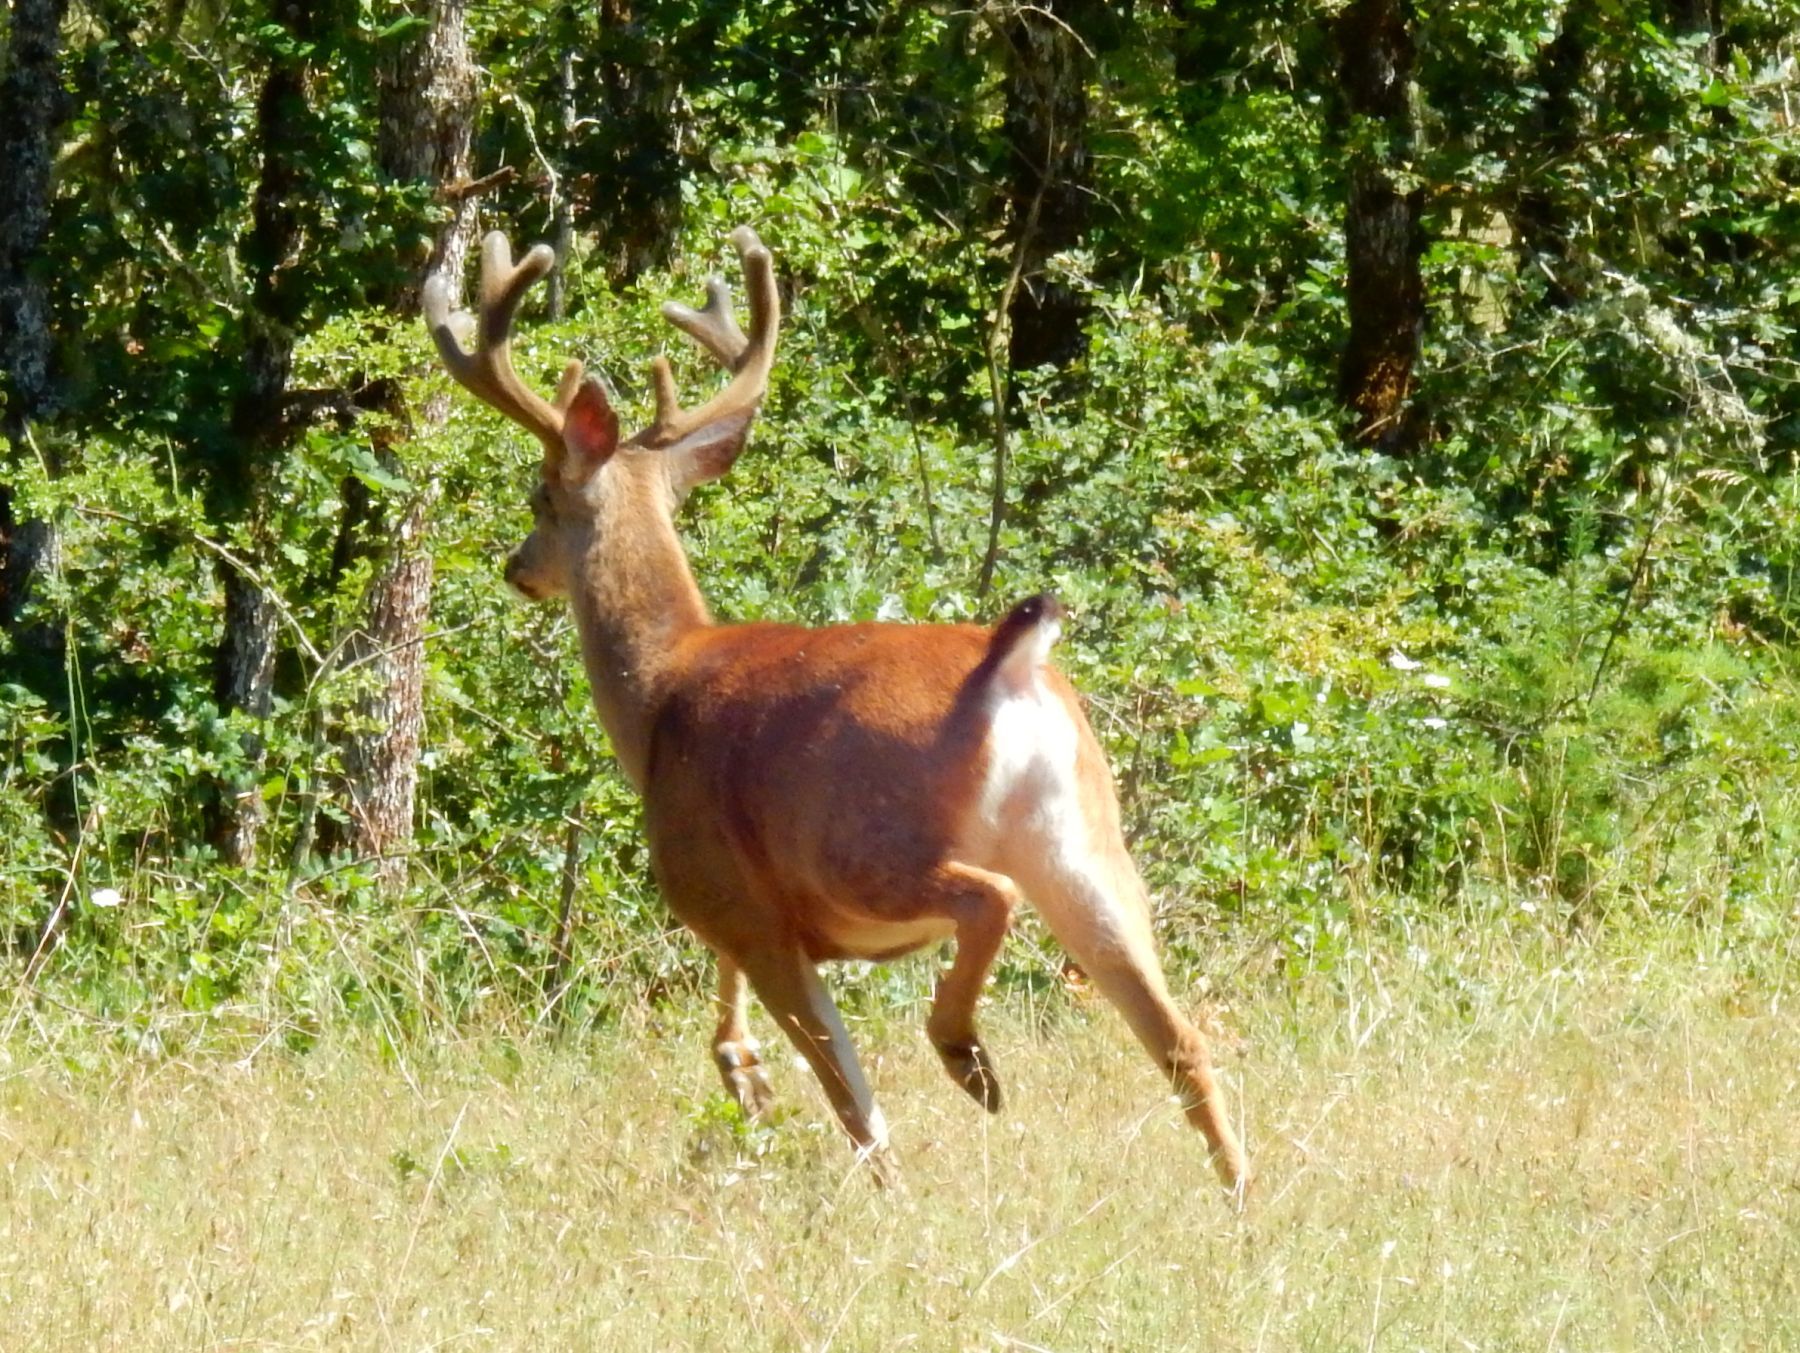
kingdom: Animalia
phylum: Chordata
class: Mammalia
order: Artiodactyla
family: Cervidae
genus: Odocoileus
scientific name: Odocoileus hemionus
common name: Mule deer
